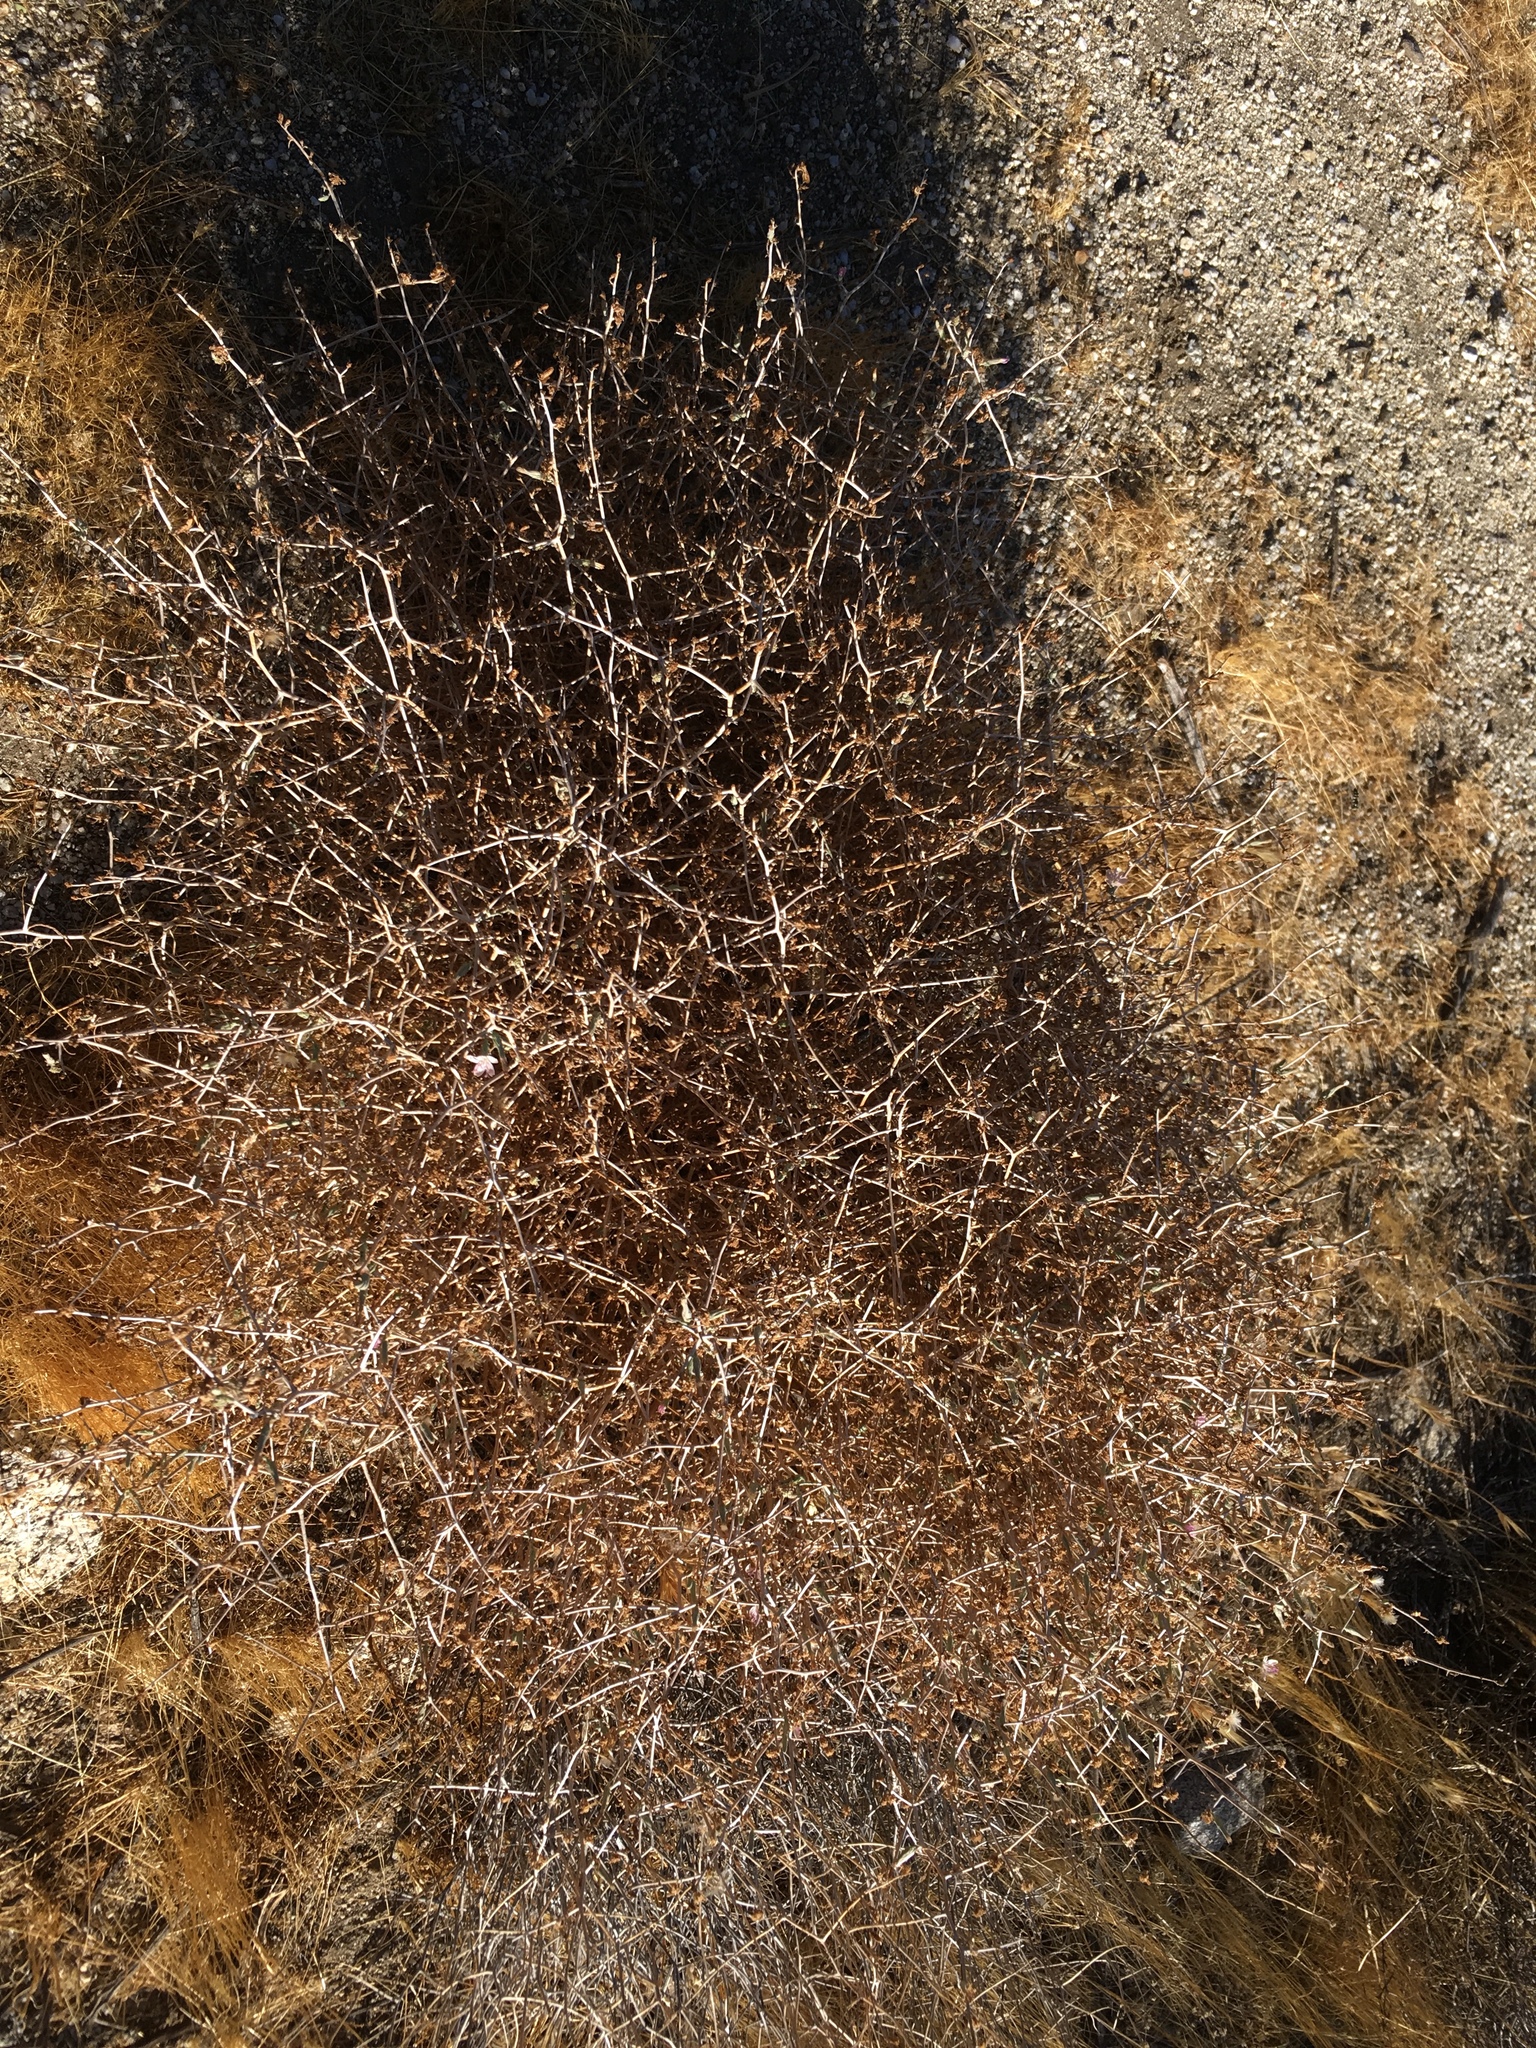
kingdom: Plantae
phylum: Tracheophyta
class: Magnoliopsida
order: Asterales
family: Asteraceae
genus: Stephanomeria
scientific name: Stephanomeria pauciflora
